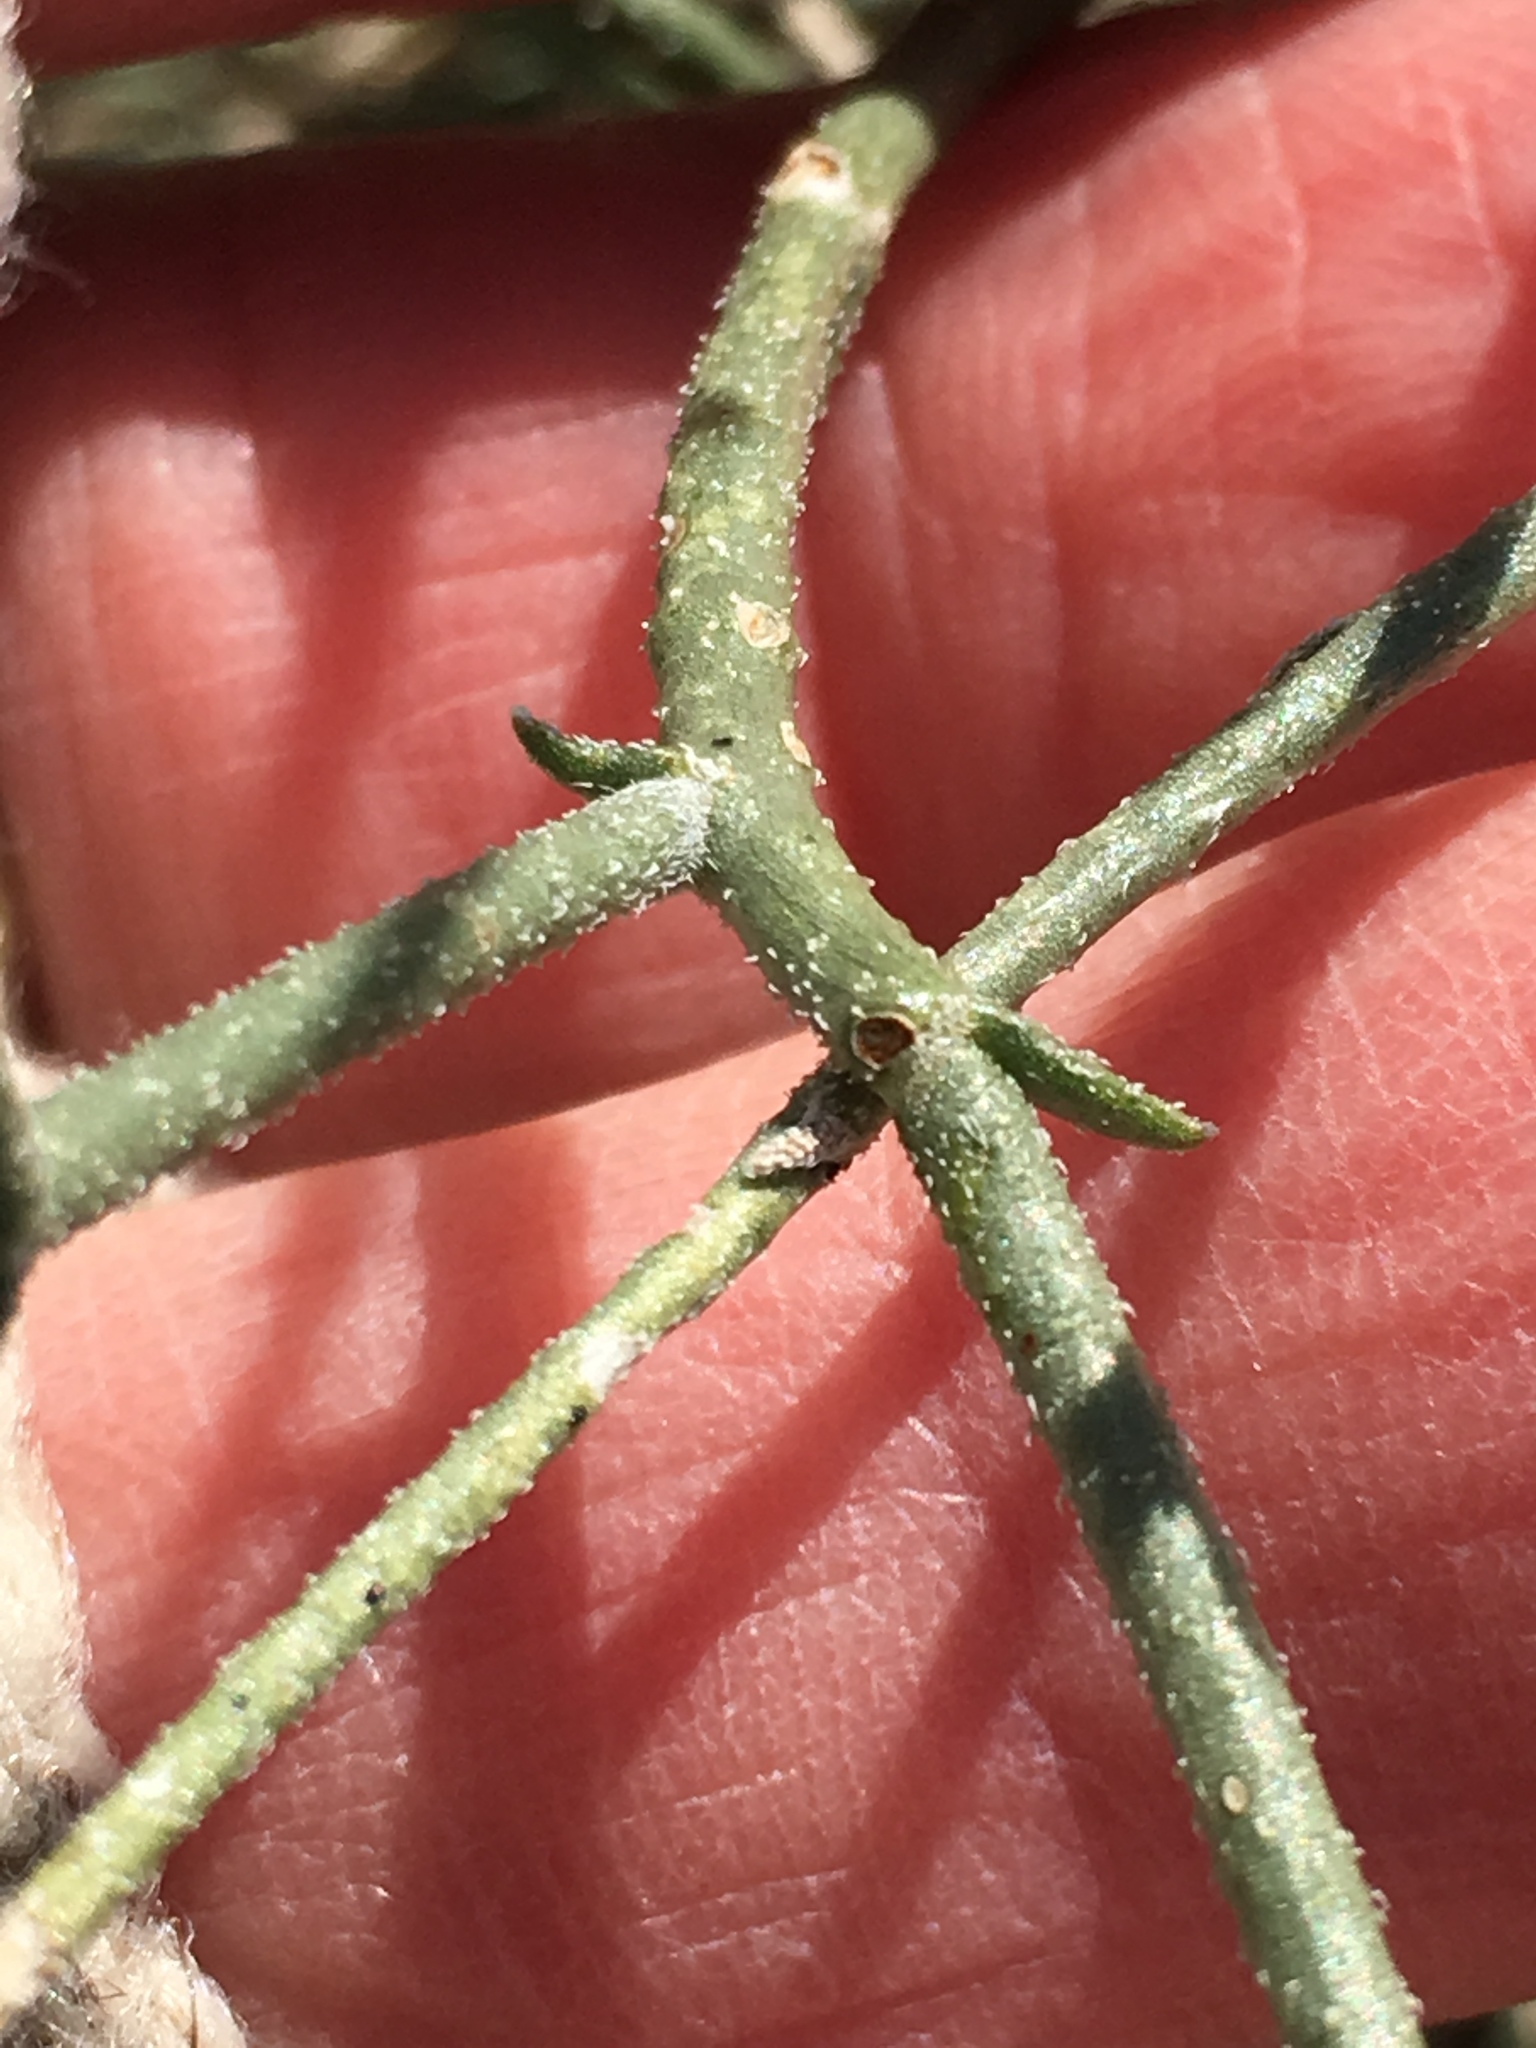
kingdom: Plantae
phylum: Tracheophyta
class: Magnoliopsida
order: Asterales
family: Asteraceae
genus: Bebbia
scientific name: Bebbia juncea
